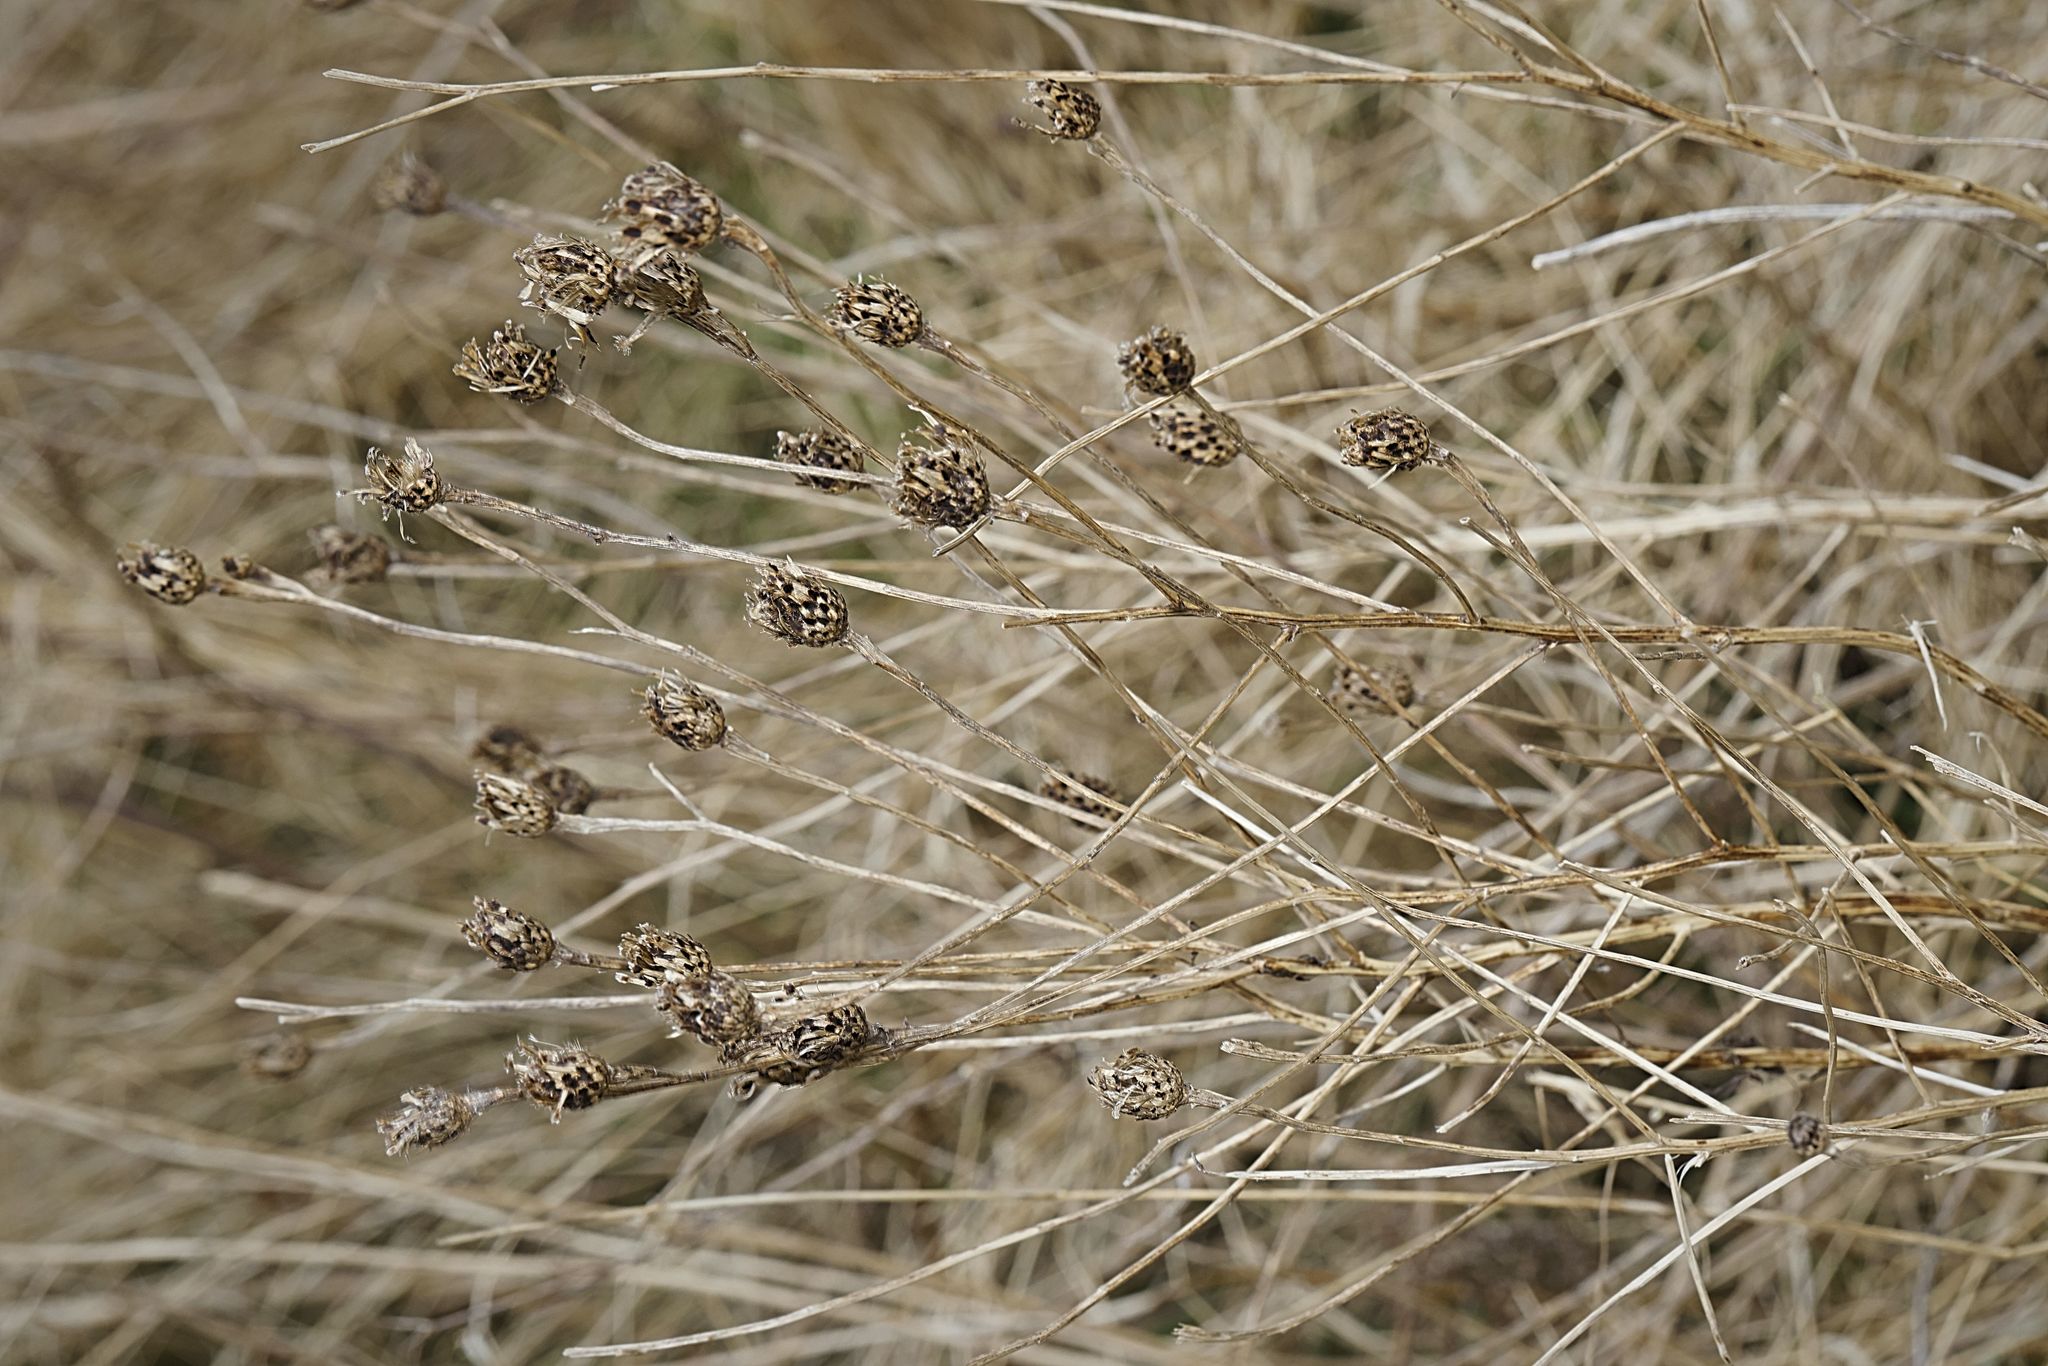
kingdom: Plantae
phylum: Tracheophyta
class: Magnoliopsida
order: Asterales
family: Asteraceae
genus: Centaurea
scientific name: Centaurea nigra
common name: Lesser knapweed
